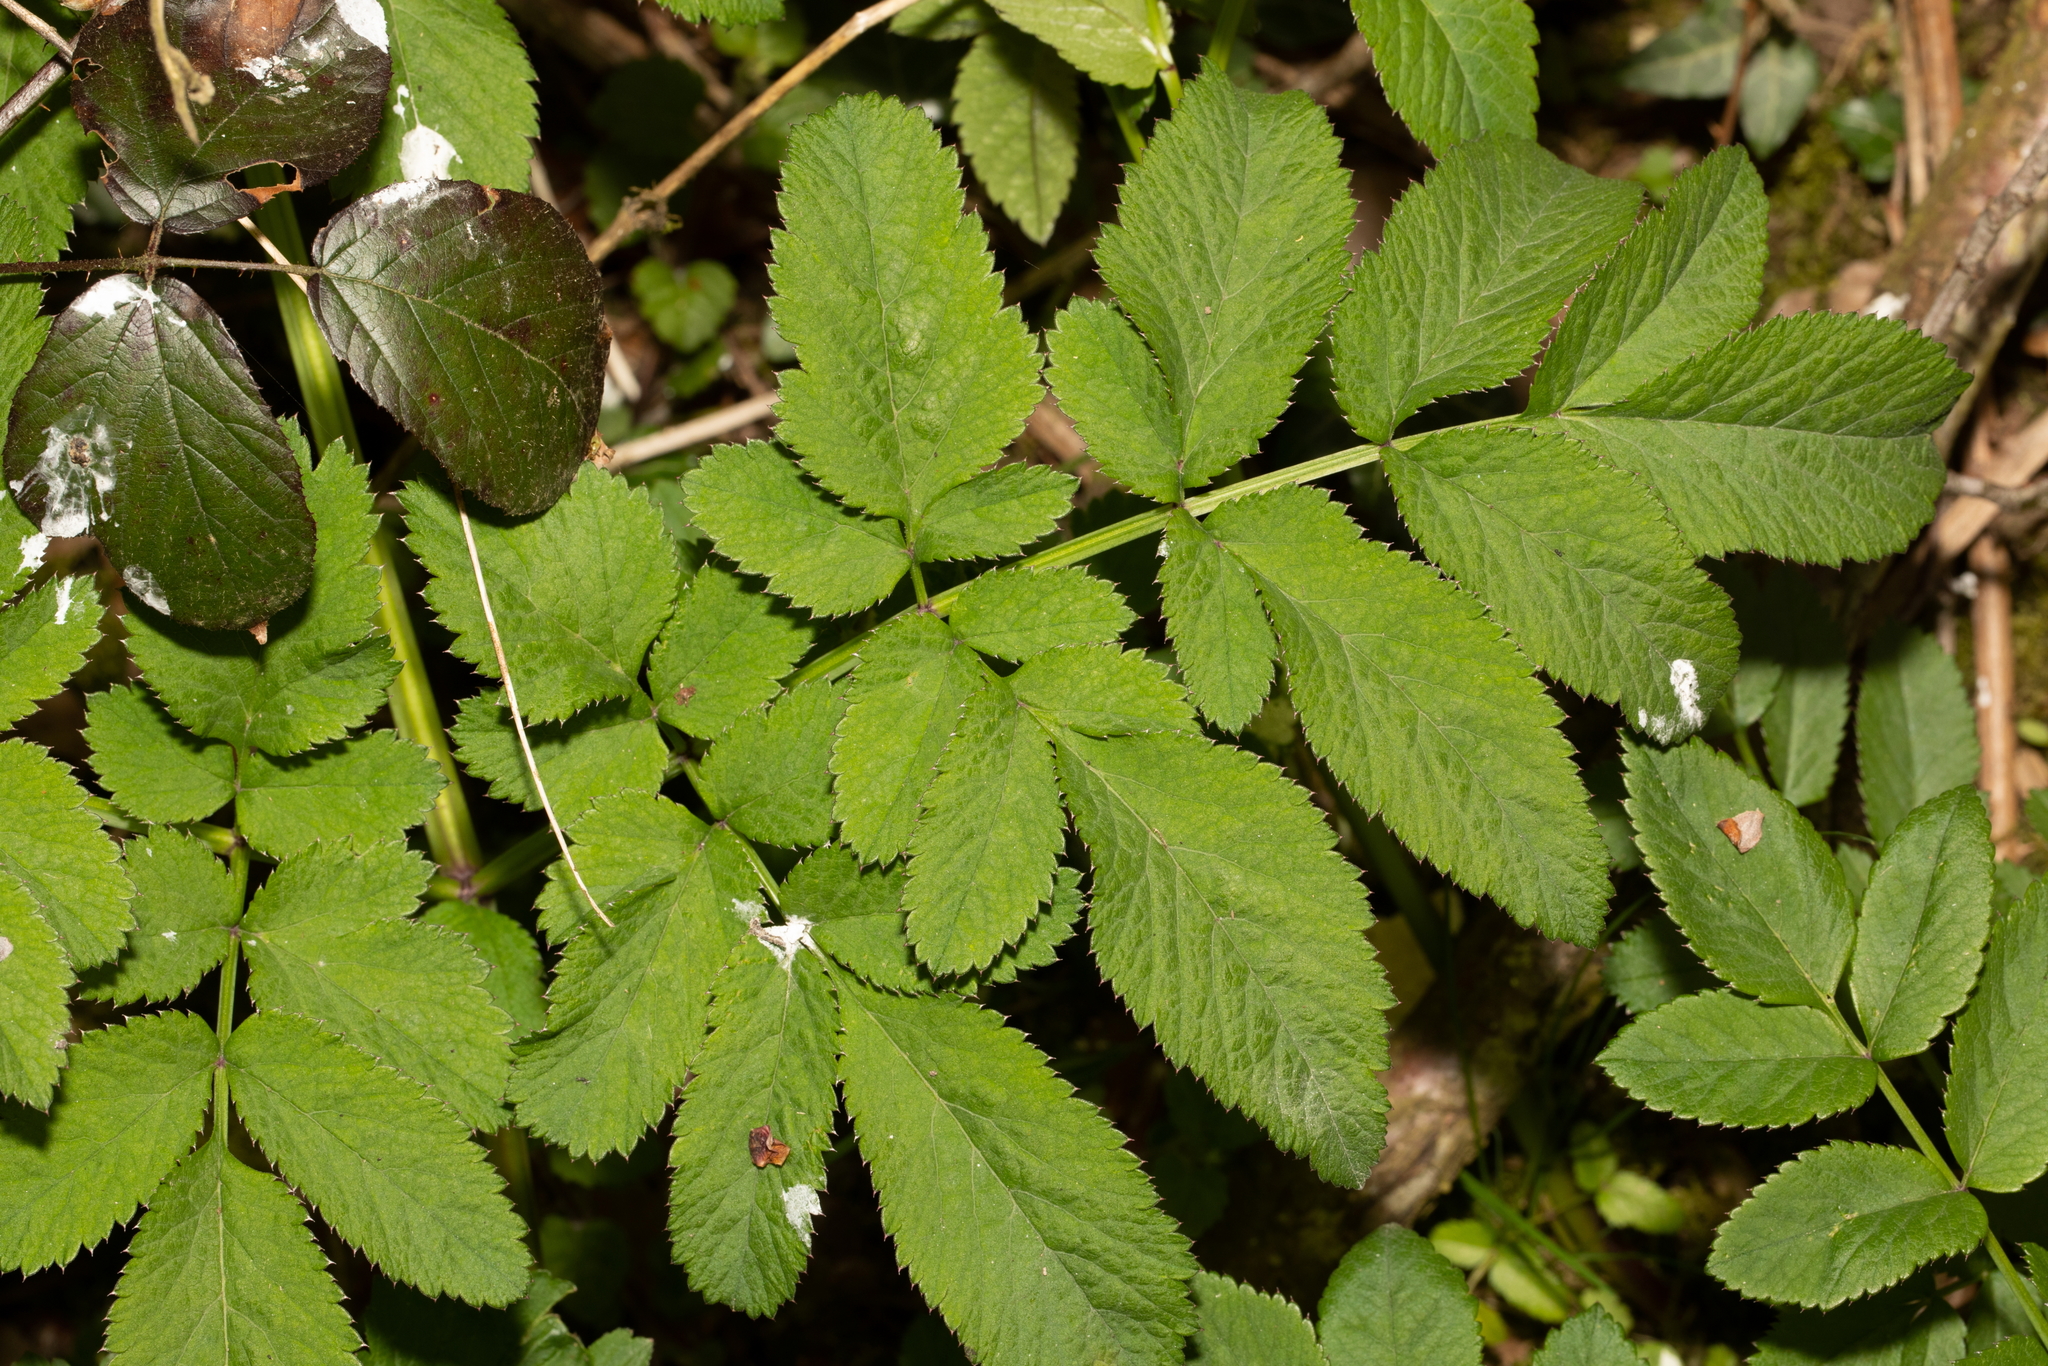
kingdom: Plantae
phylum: Tracheophyta
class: Magnoliopsida
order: Apiales
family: Apiaceae
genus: Angelica
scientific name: Angelica sylvestris
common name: Wild angelica
